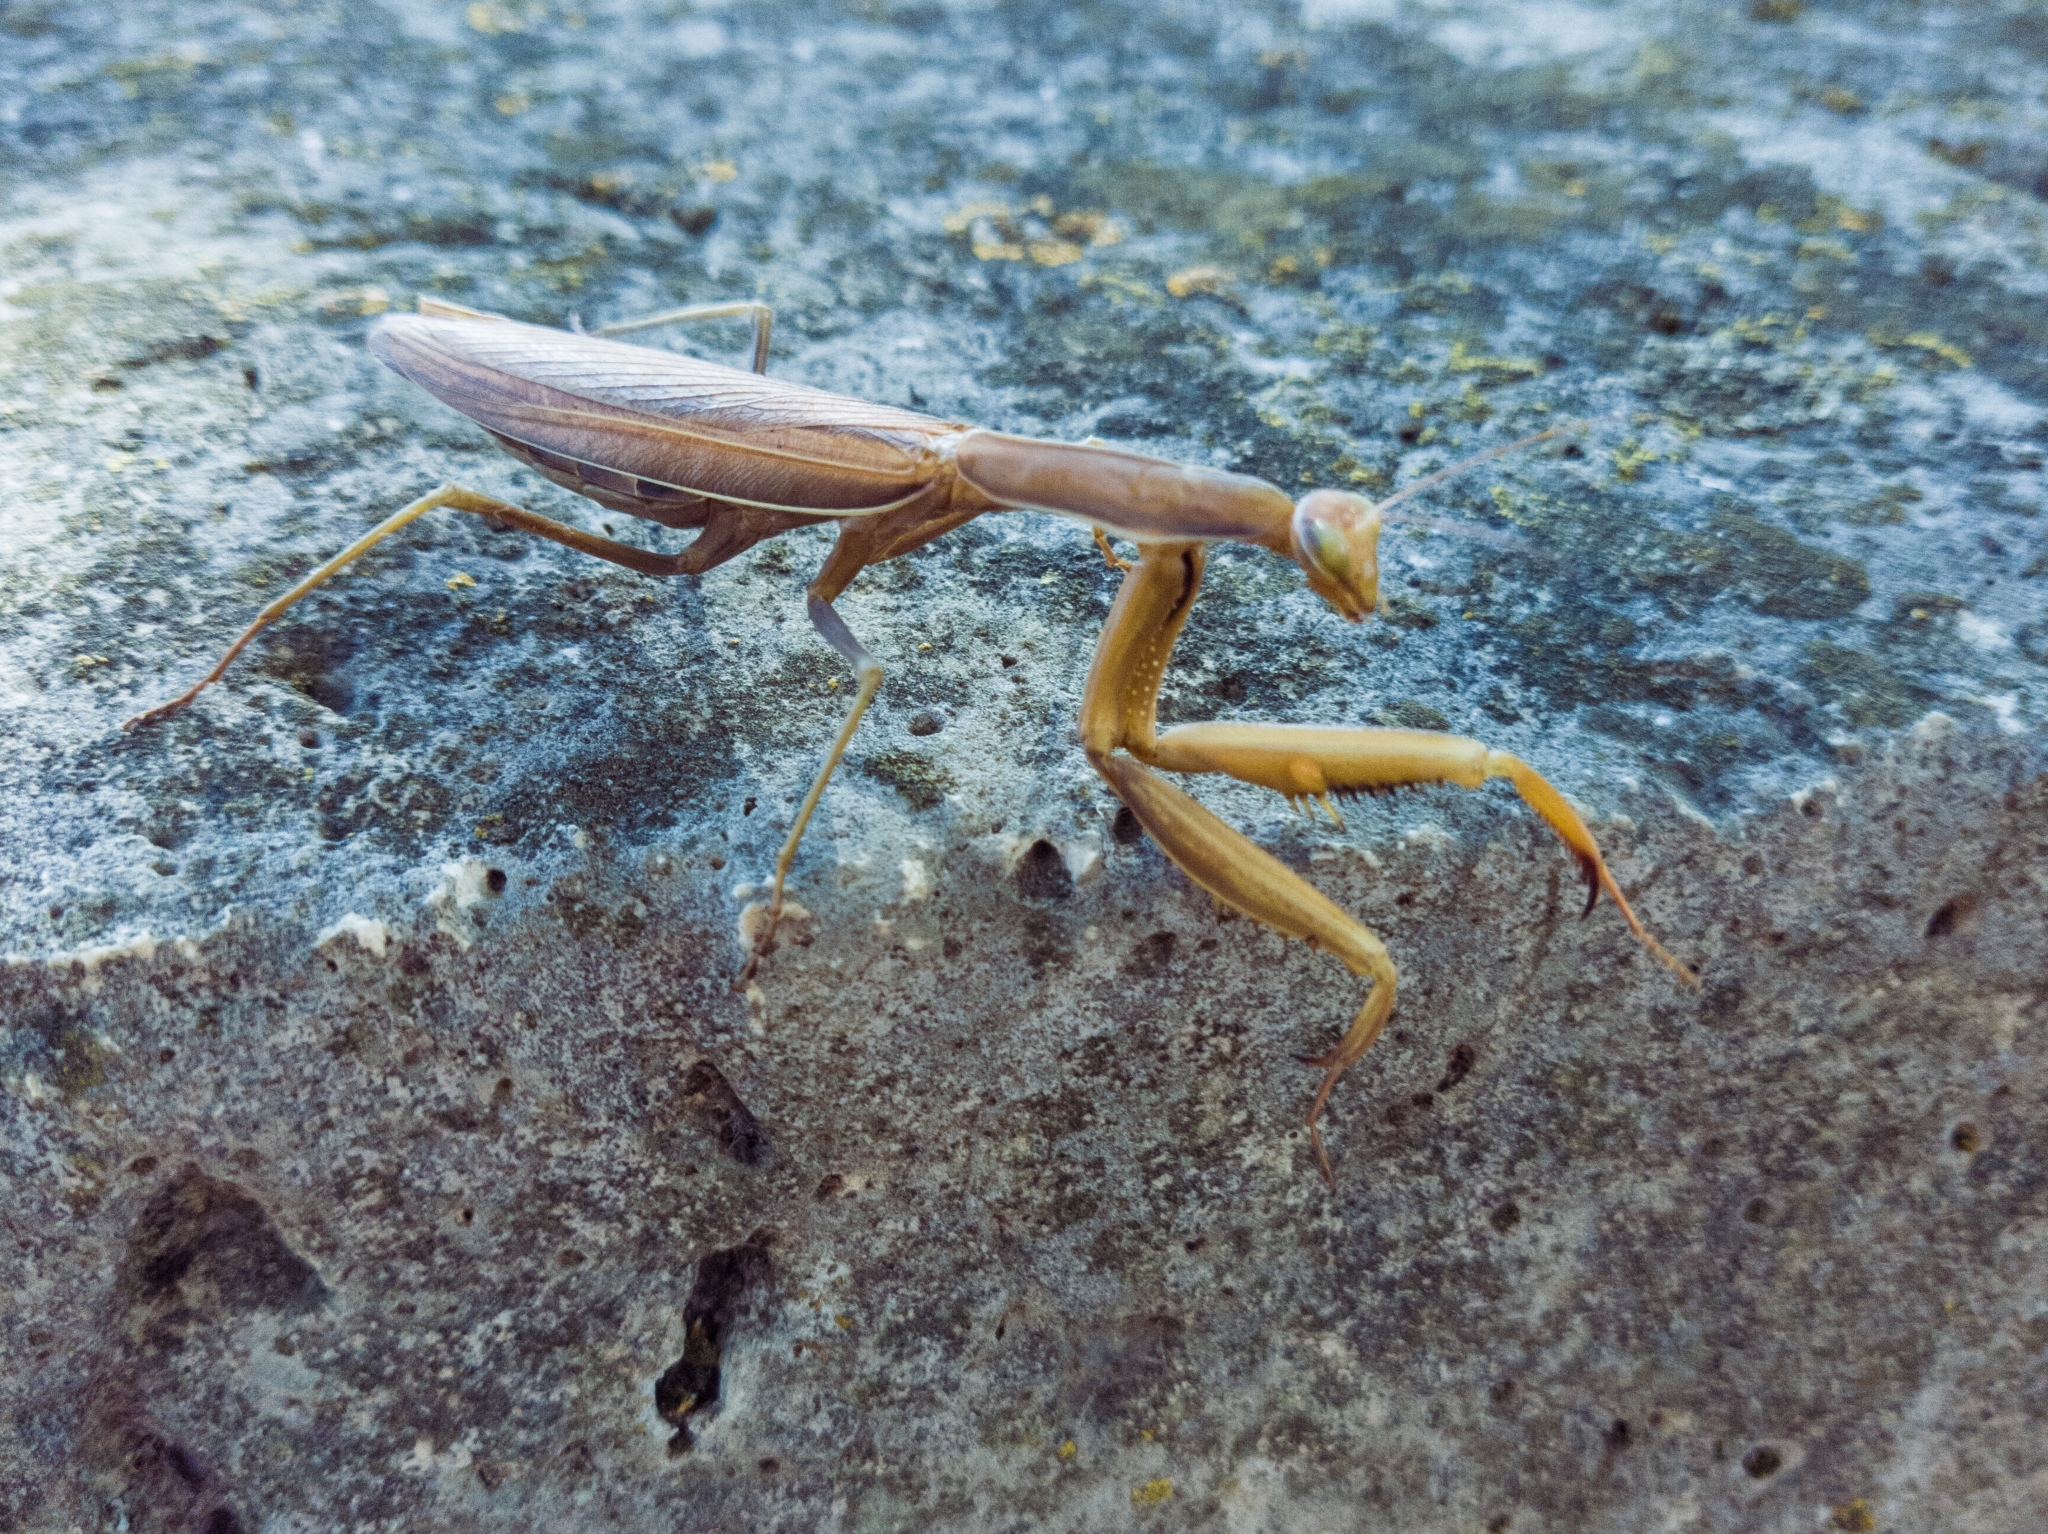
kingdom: Animalia
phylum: Arthropoda
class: Insecta
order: Mantodea
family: Mantidae
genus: Mantis
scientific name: Mantis religiosa
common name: Praying mantis
